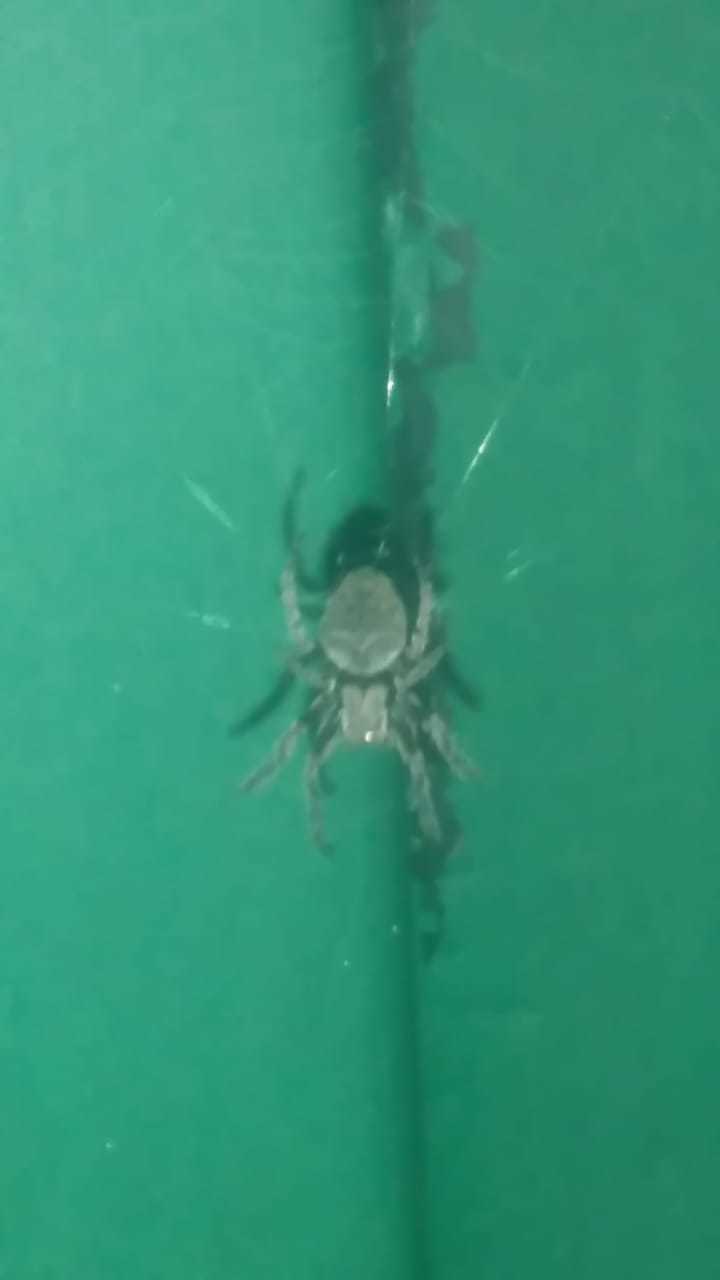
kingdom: Animalia
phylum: Arthropoda
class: Arachnida
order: Araneae
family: Araneidae
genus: Parawixia
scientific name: Parawixia audax
